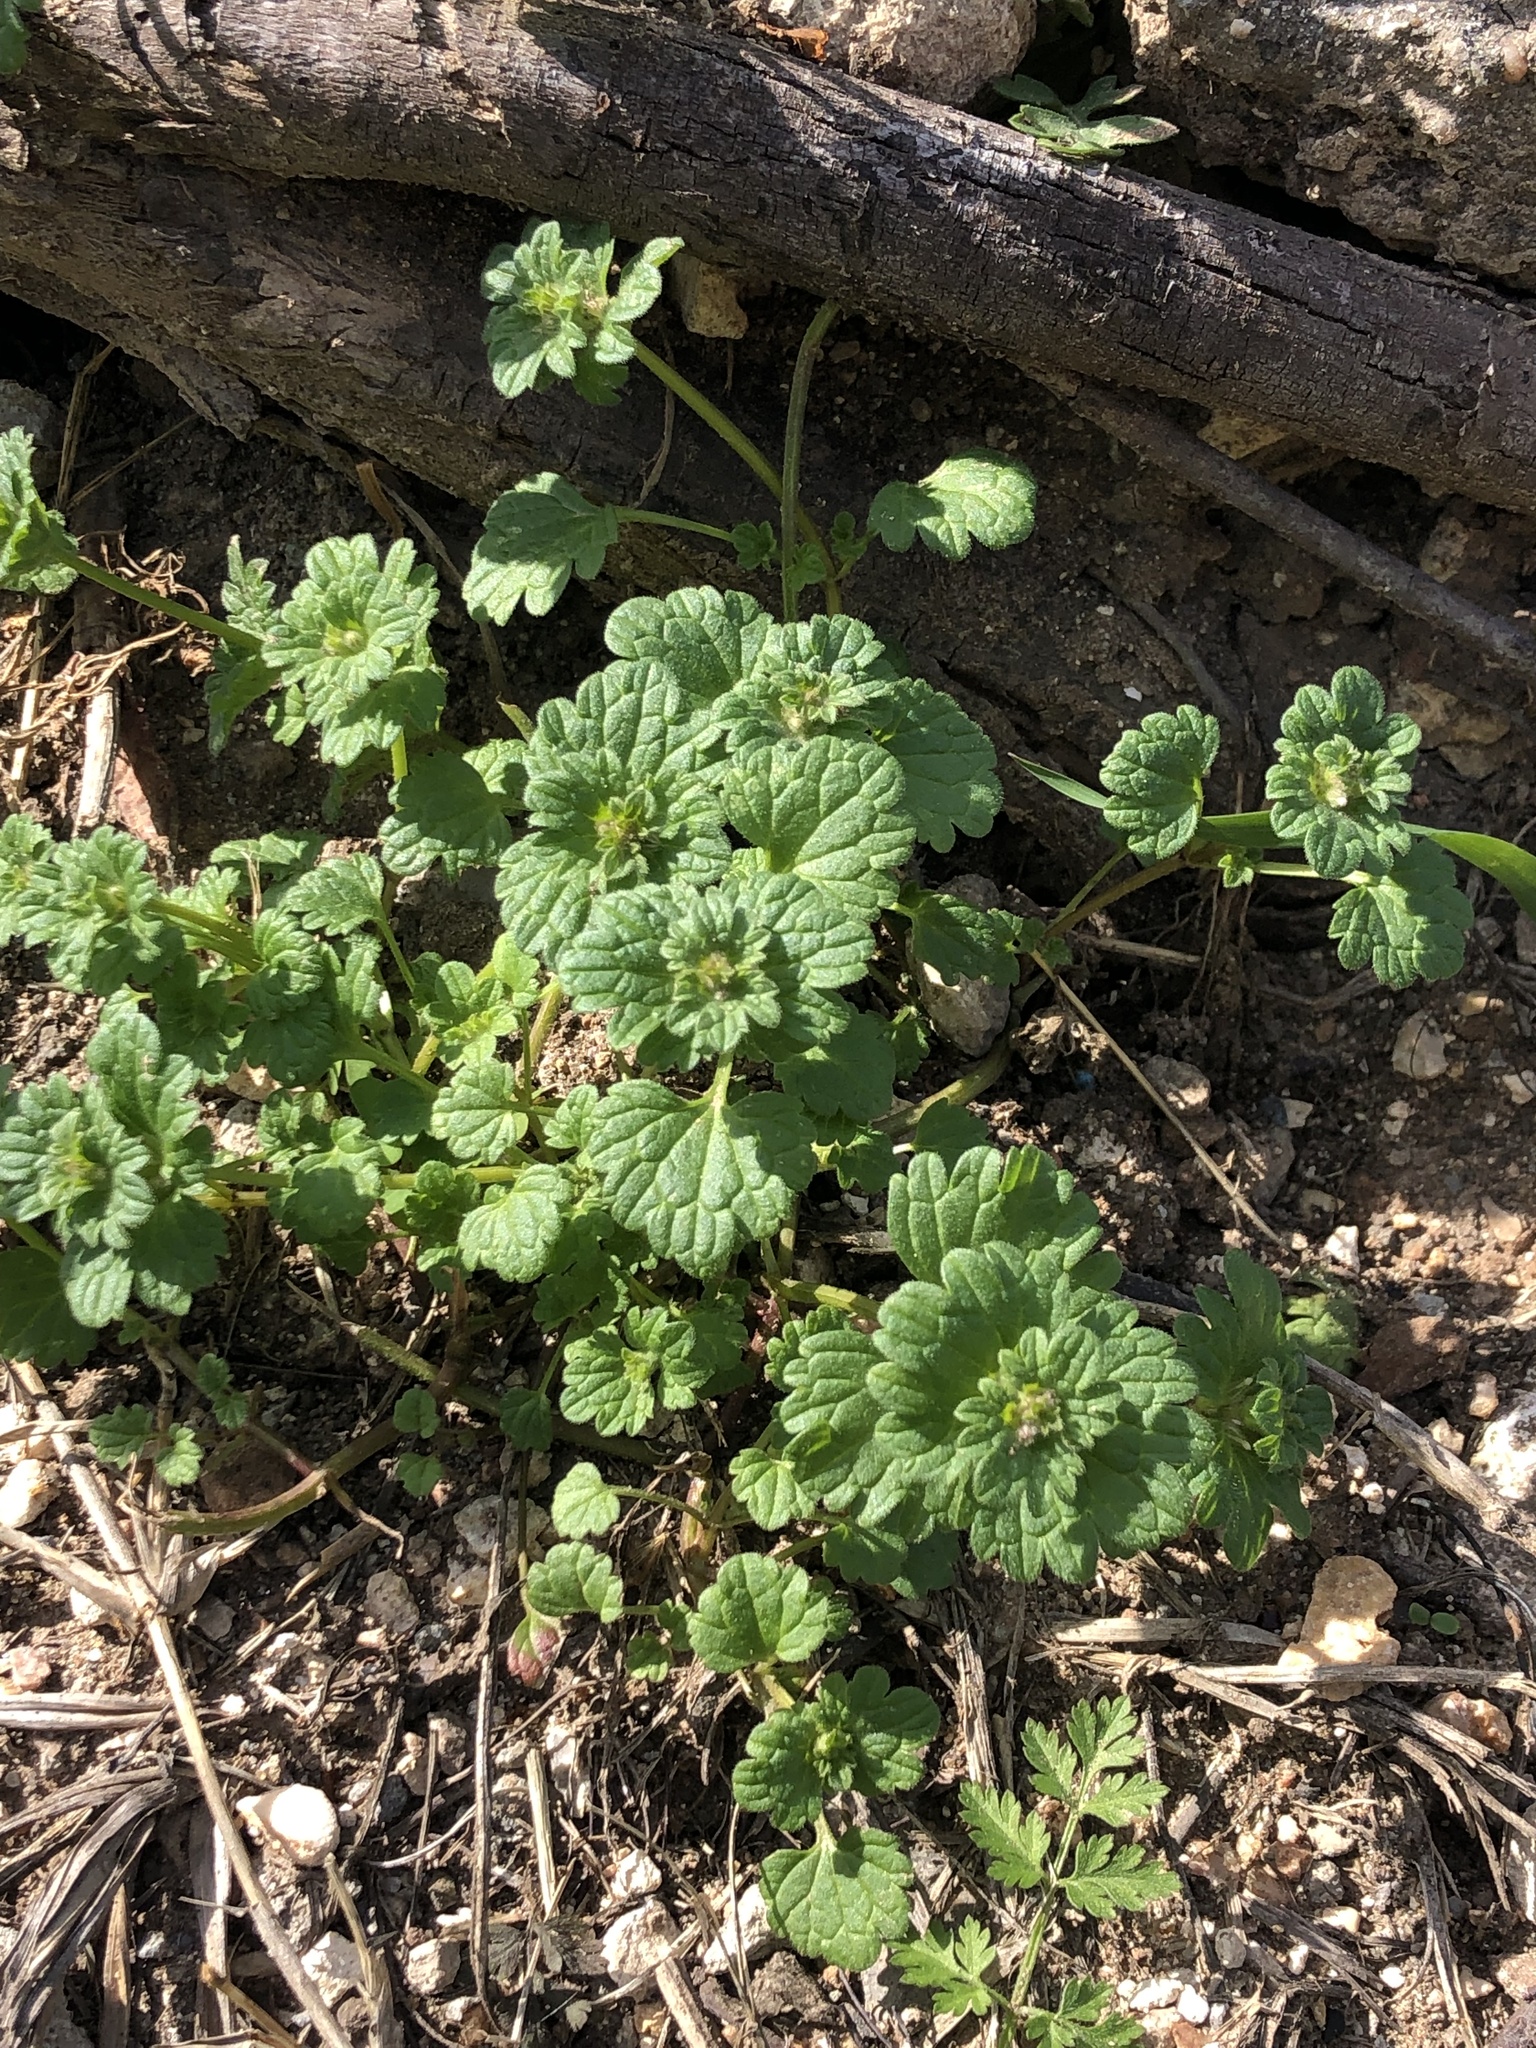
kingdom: Plantae
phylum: Tracheophyta
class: Magnoliopsida
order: Lamiales
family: Lamiaceae
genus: Lamium
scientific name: Lamium amplexicaule
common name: Henbit dead-nettle
